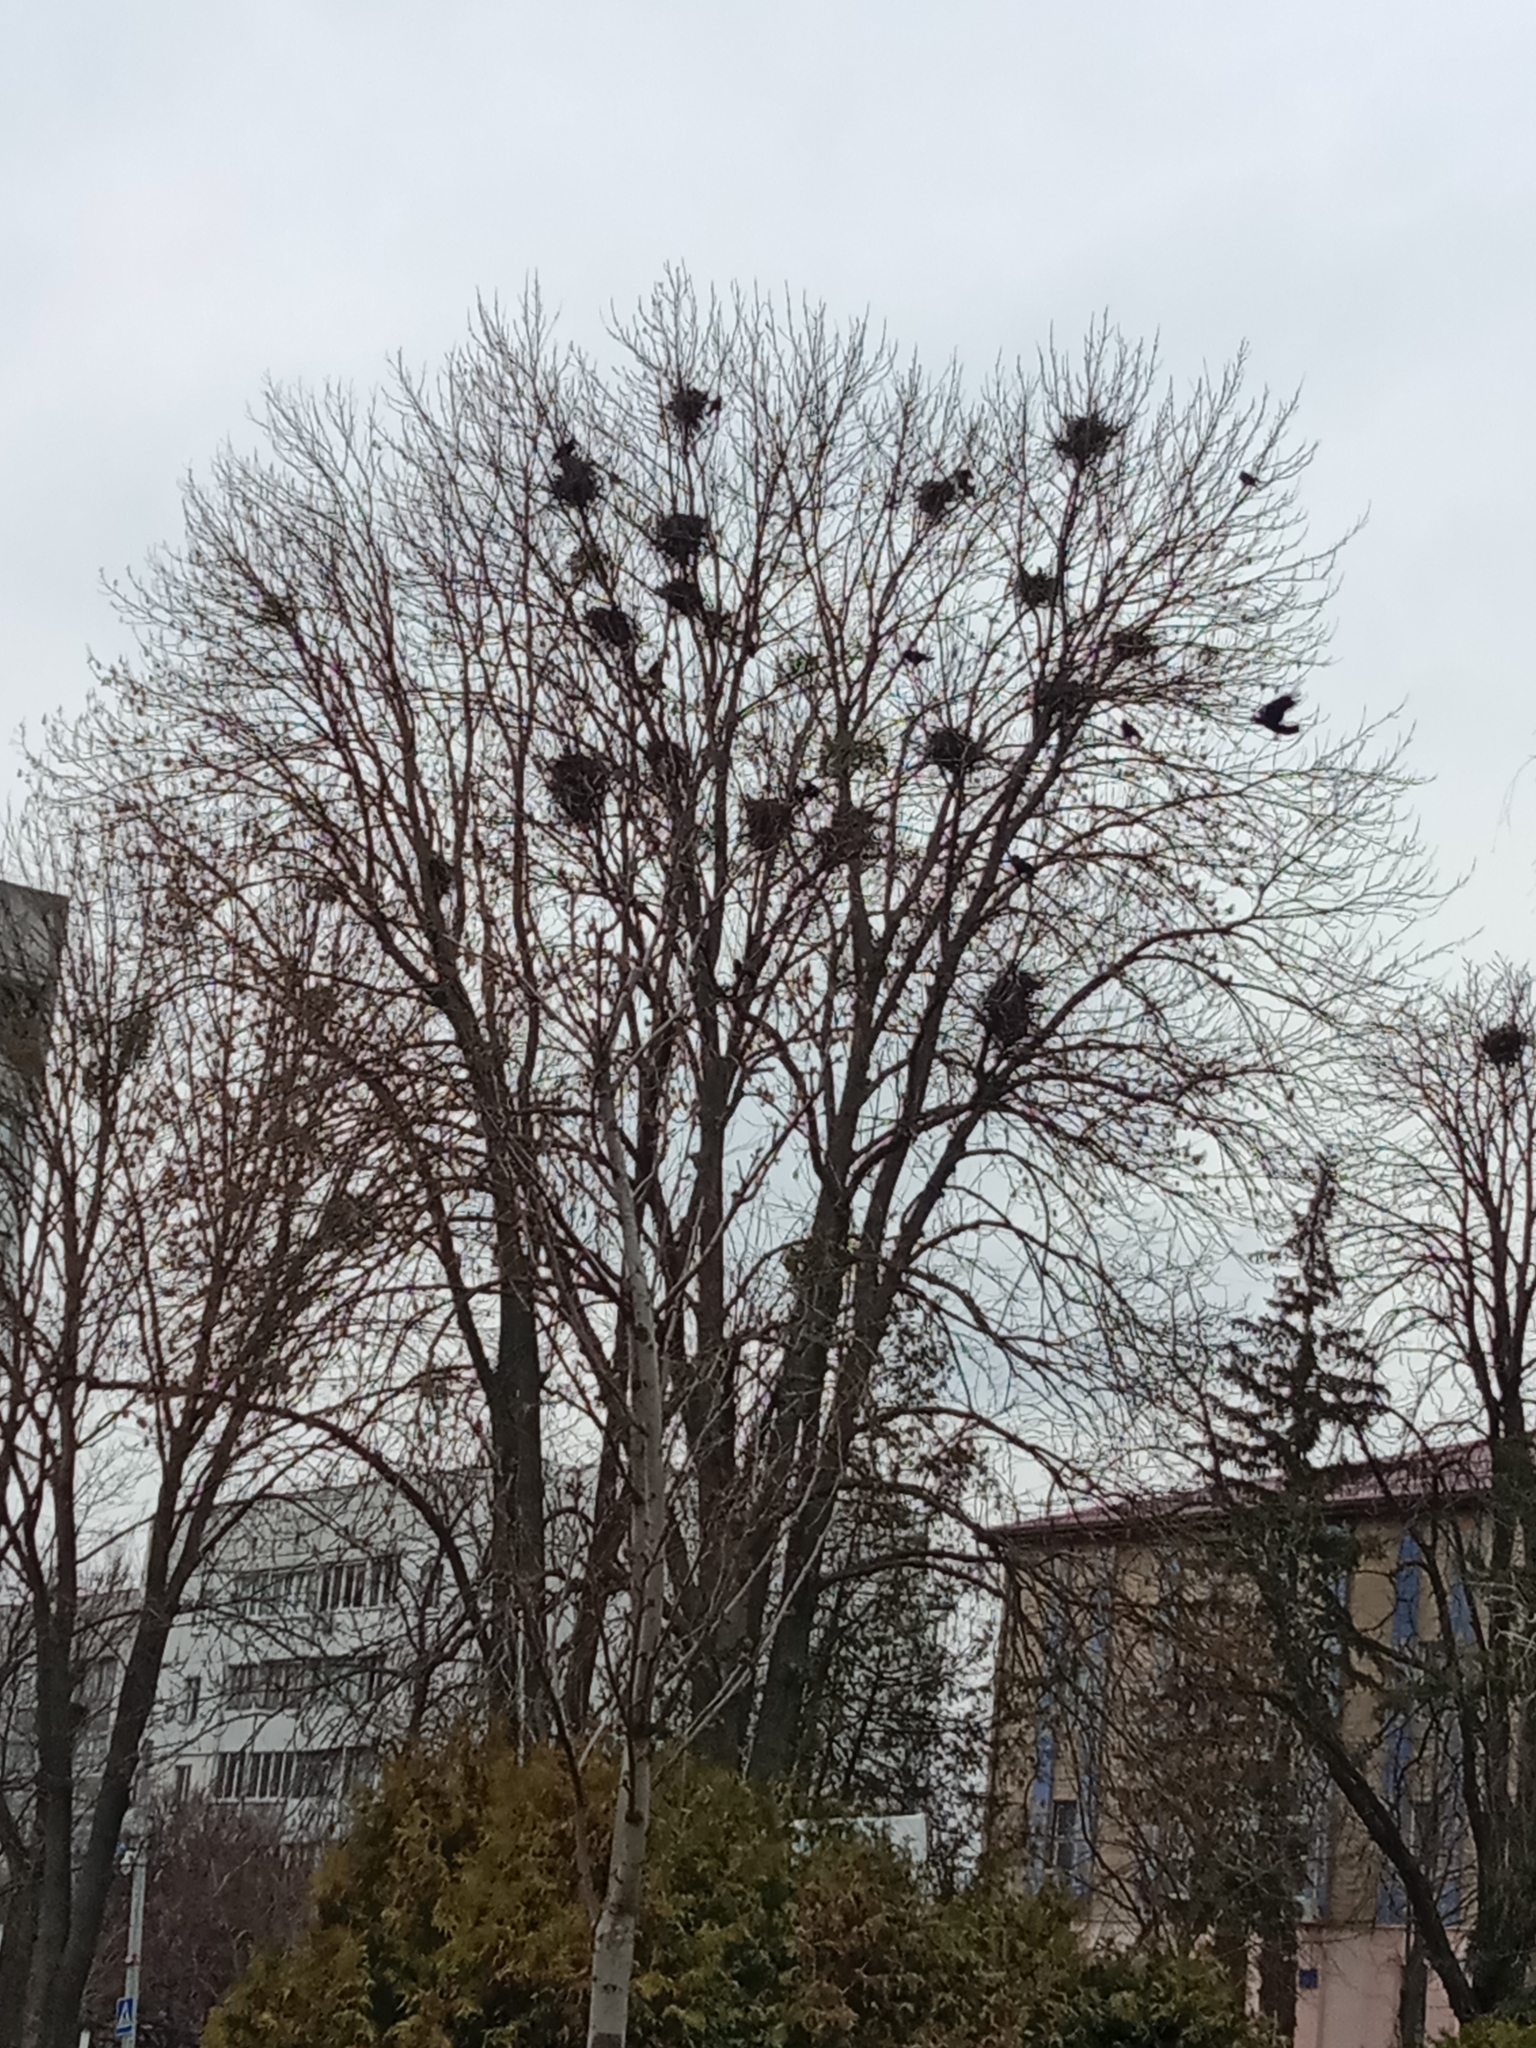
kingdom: Animalia
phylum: Chordata
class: Aves
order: Passeriformes
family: Corvidae
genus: Corvus
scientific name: Corvus frugilegus
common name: Rook
